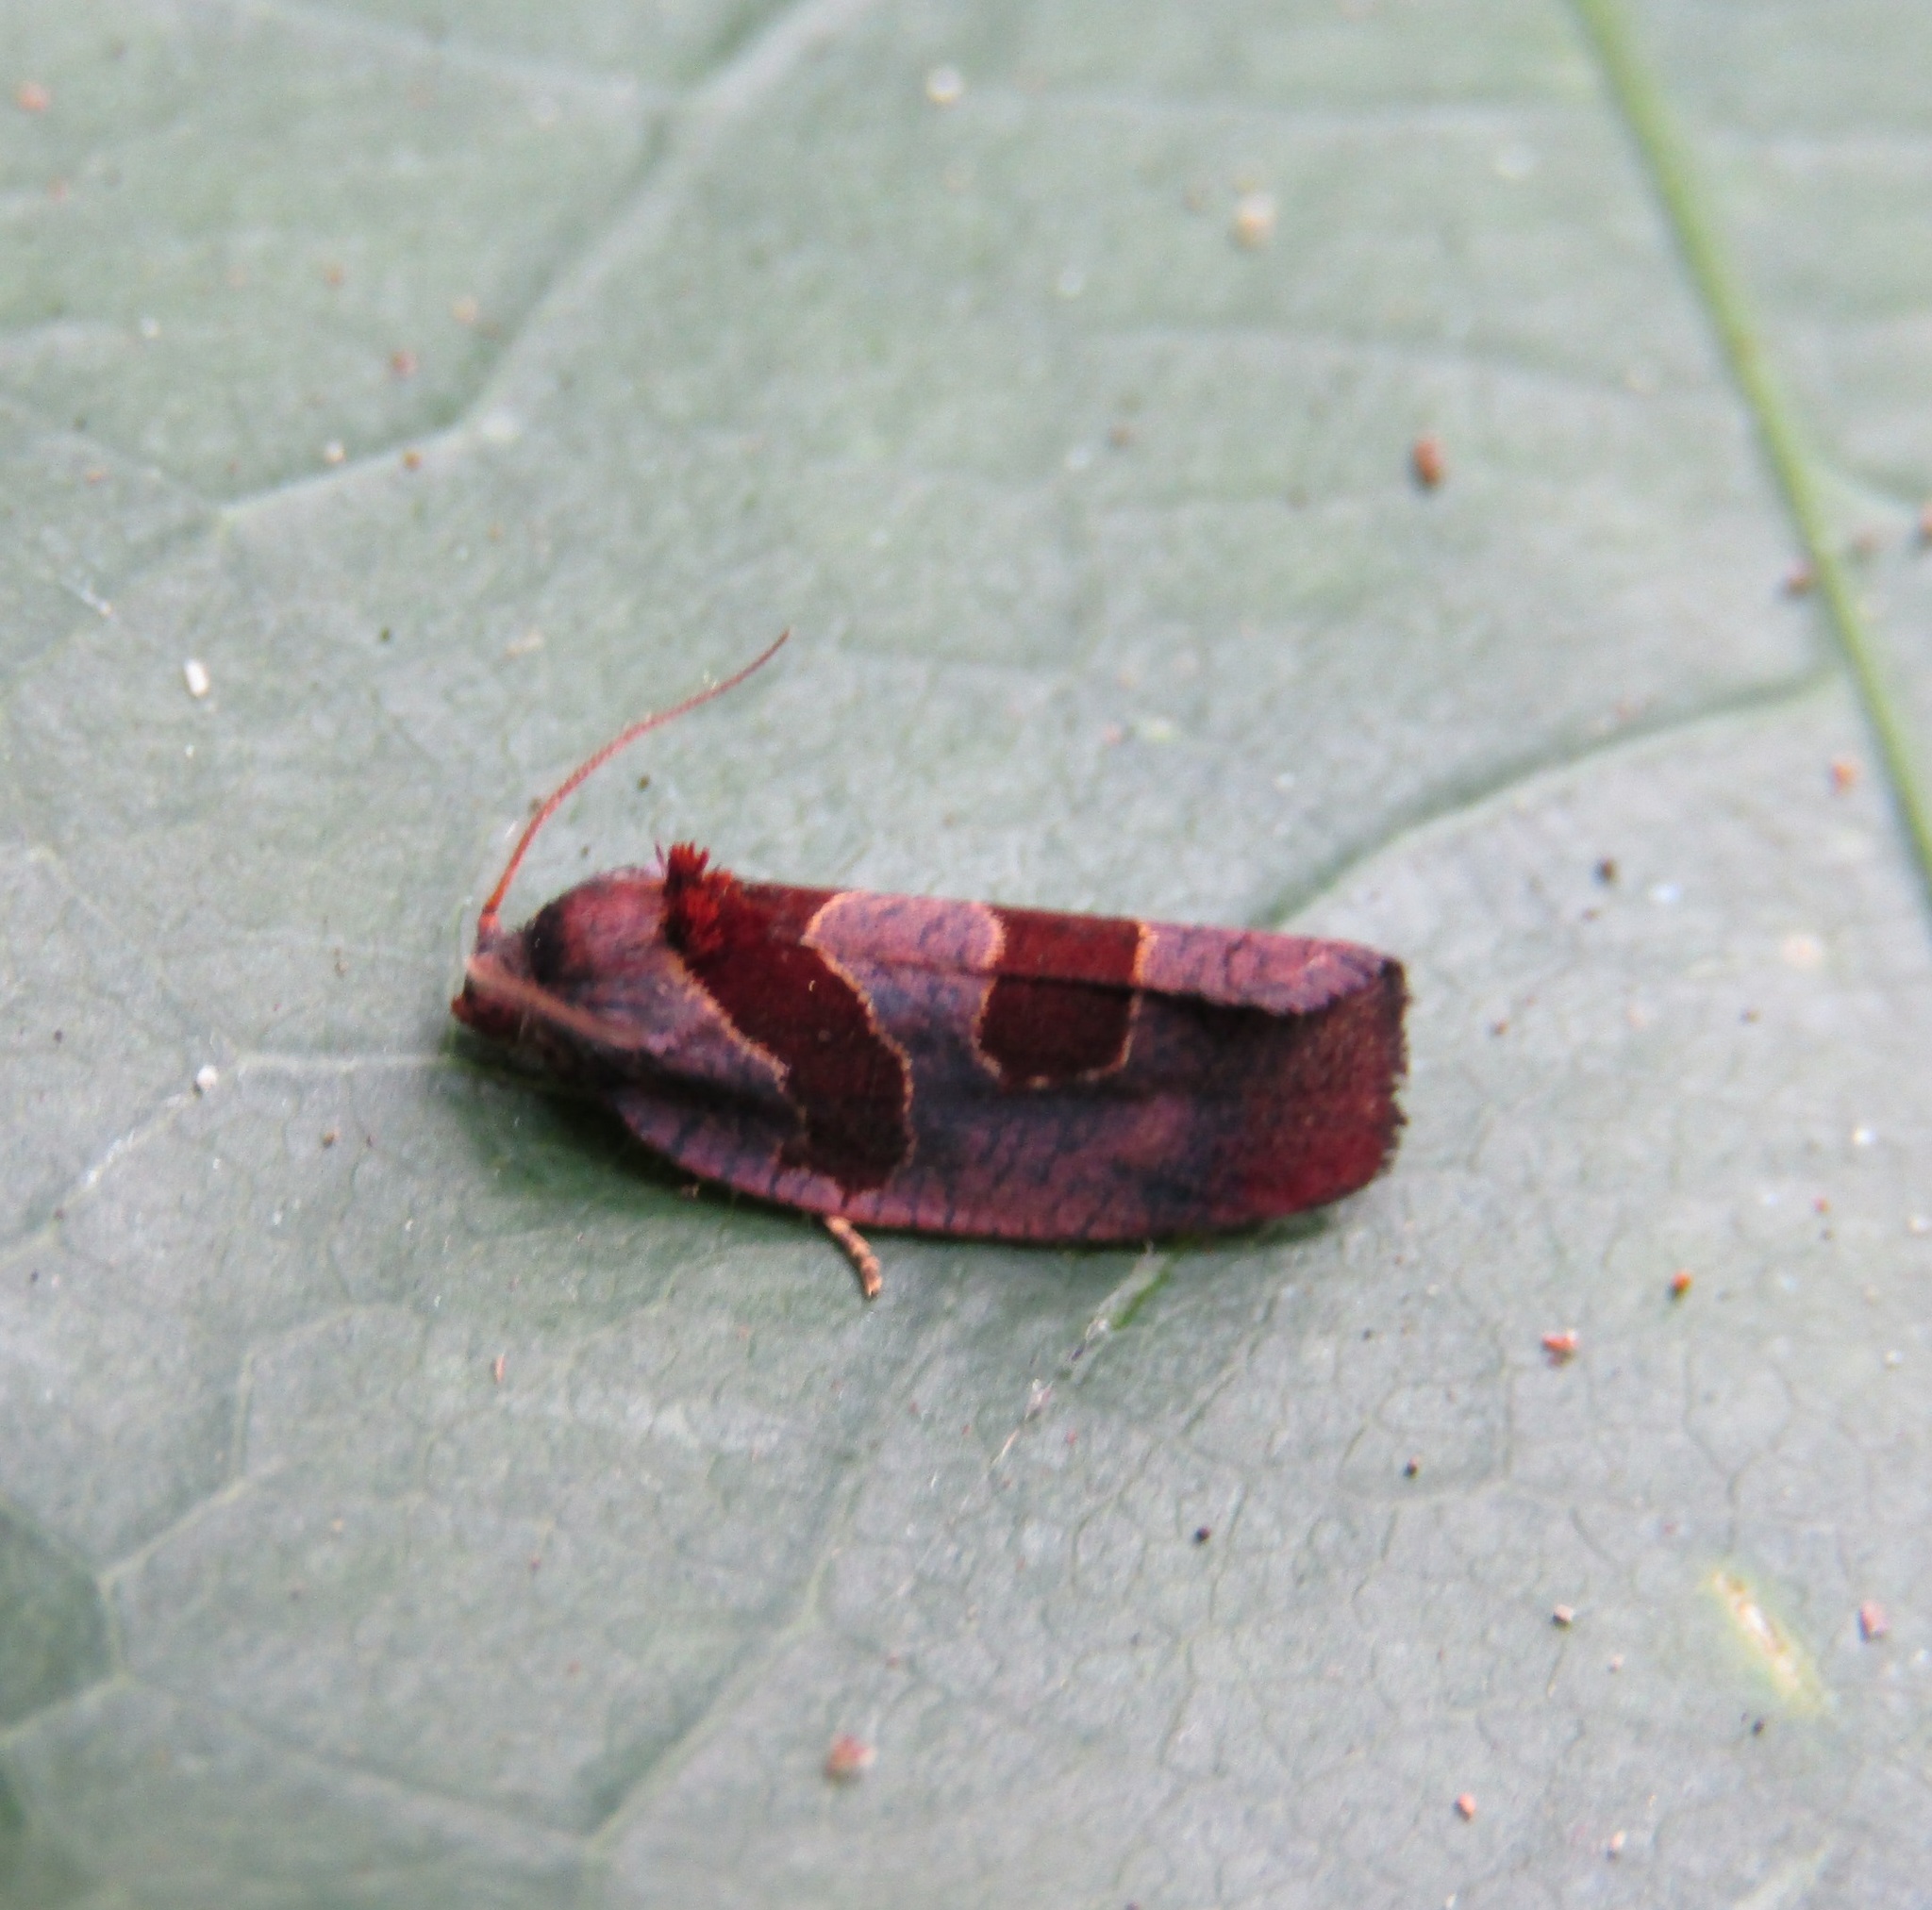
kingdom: Animalia
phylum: Arthropoda
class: Insecta
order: Lepidoptera
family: Tortricidae
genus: Ochetarcha
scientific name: Ochetarcha
